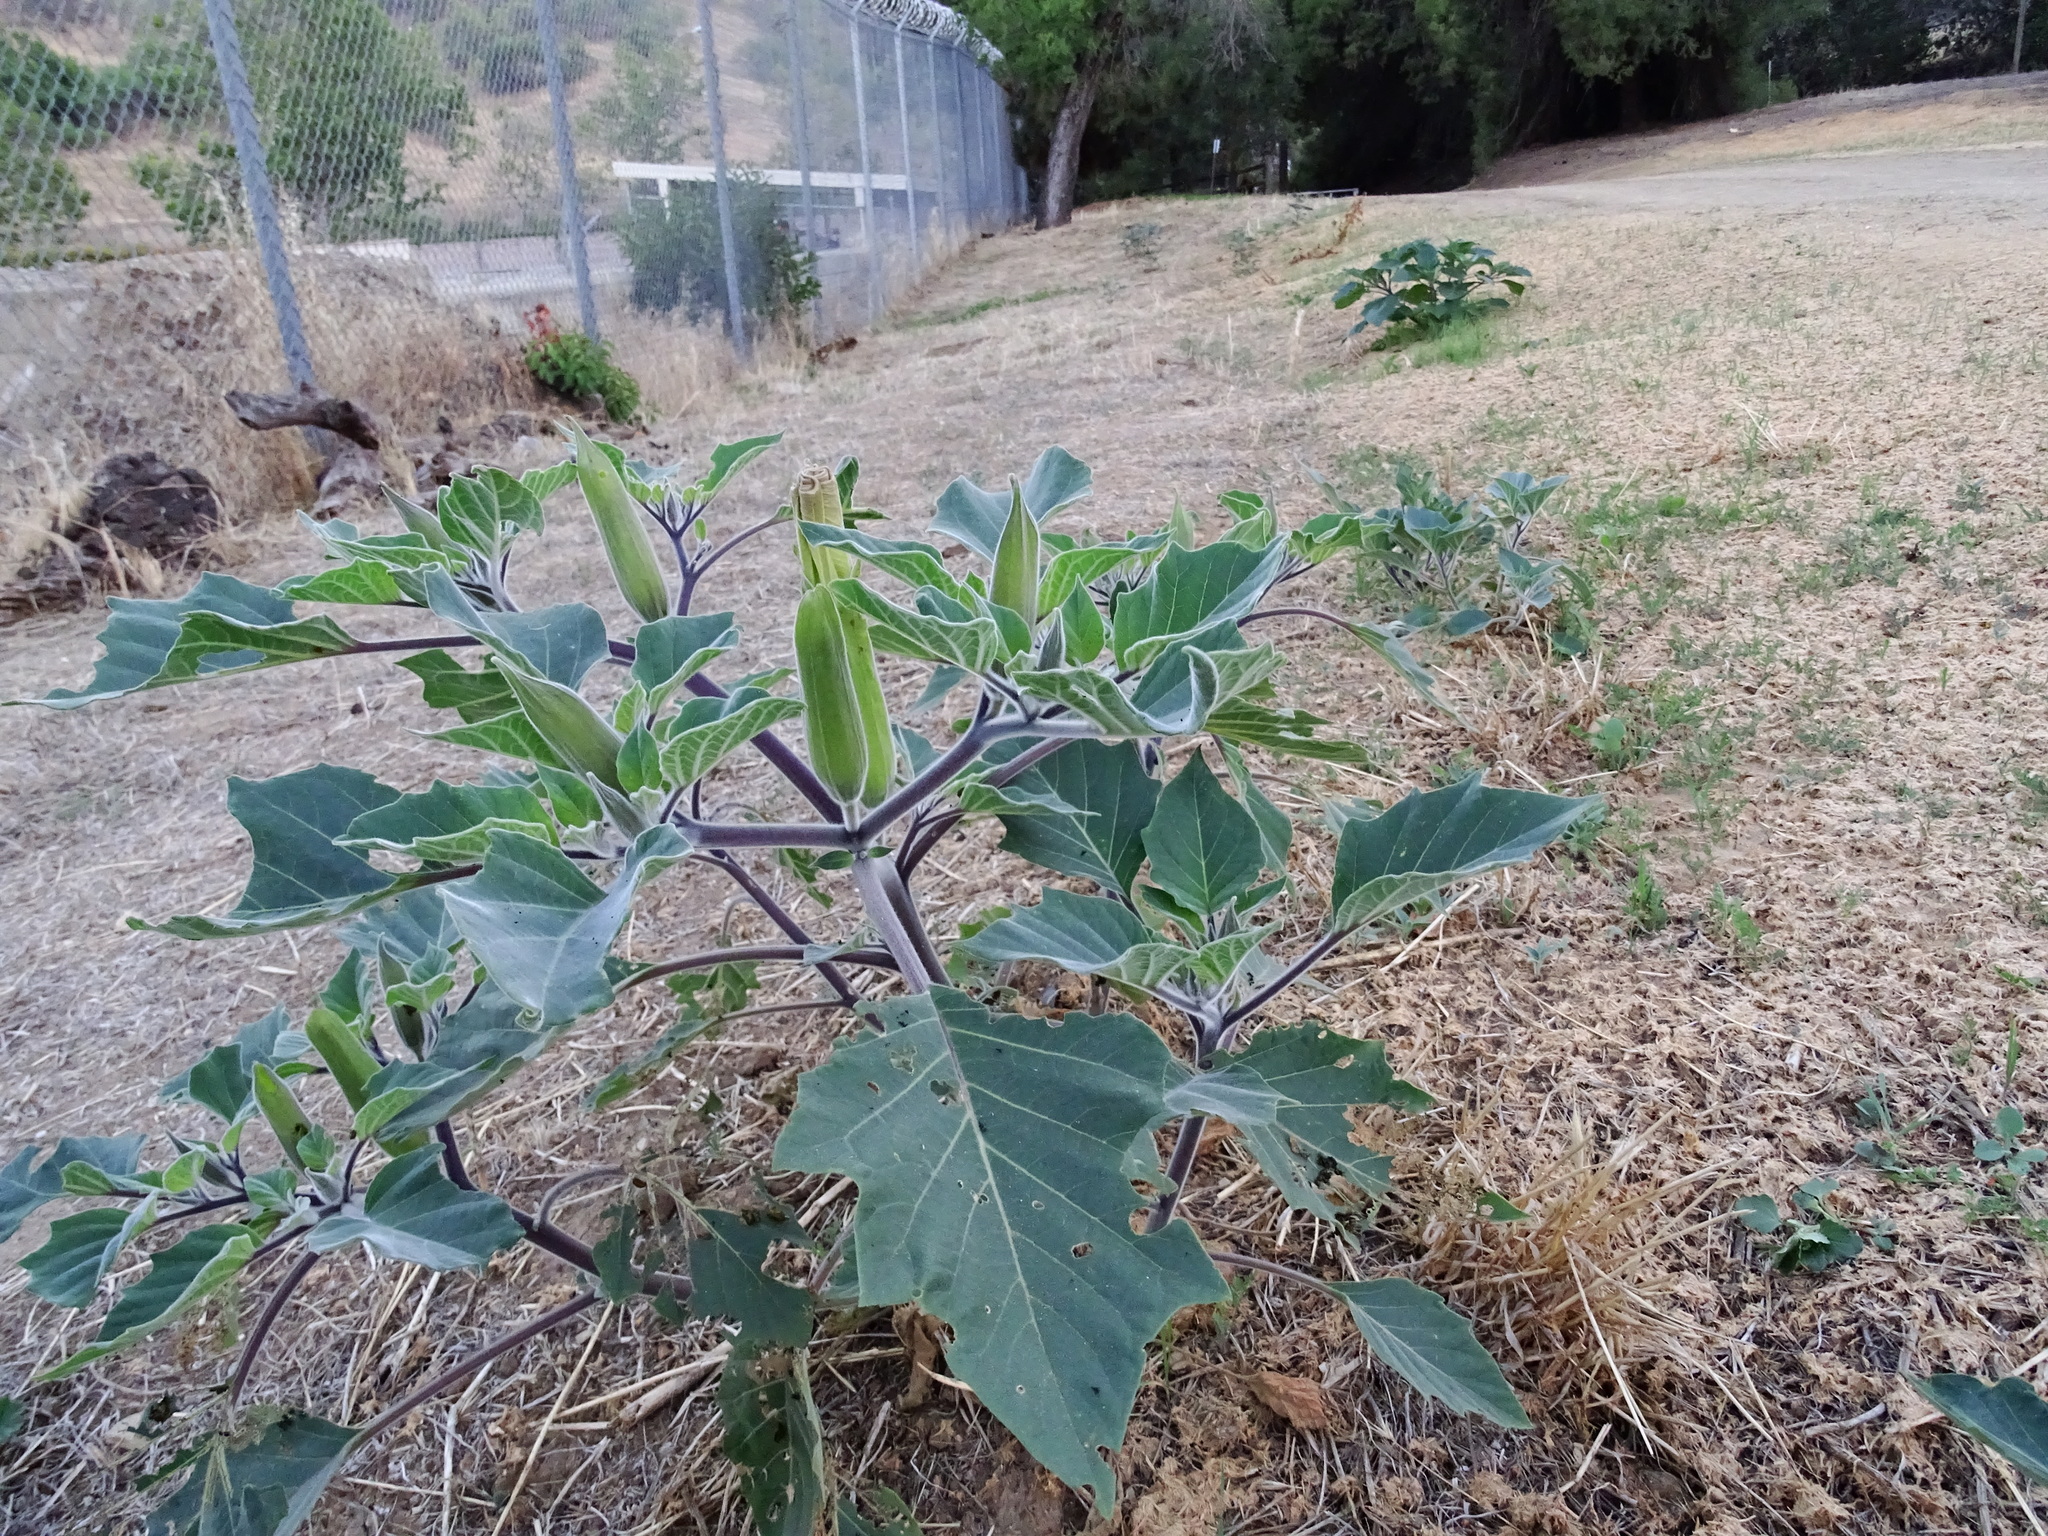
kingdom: Plantae
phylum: Tracheophyta
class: Magnoliopsida
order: Solanales
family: Solanaceae
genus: Datura
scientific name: Datura wrightii
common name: Sacred thorn-apple
